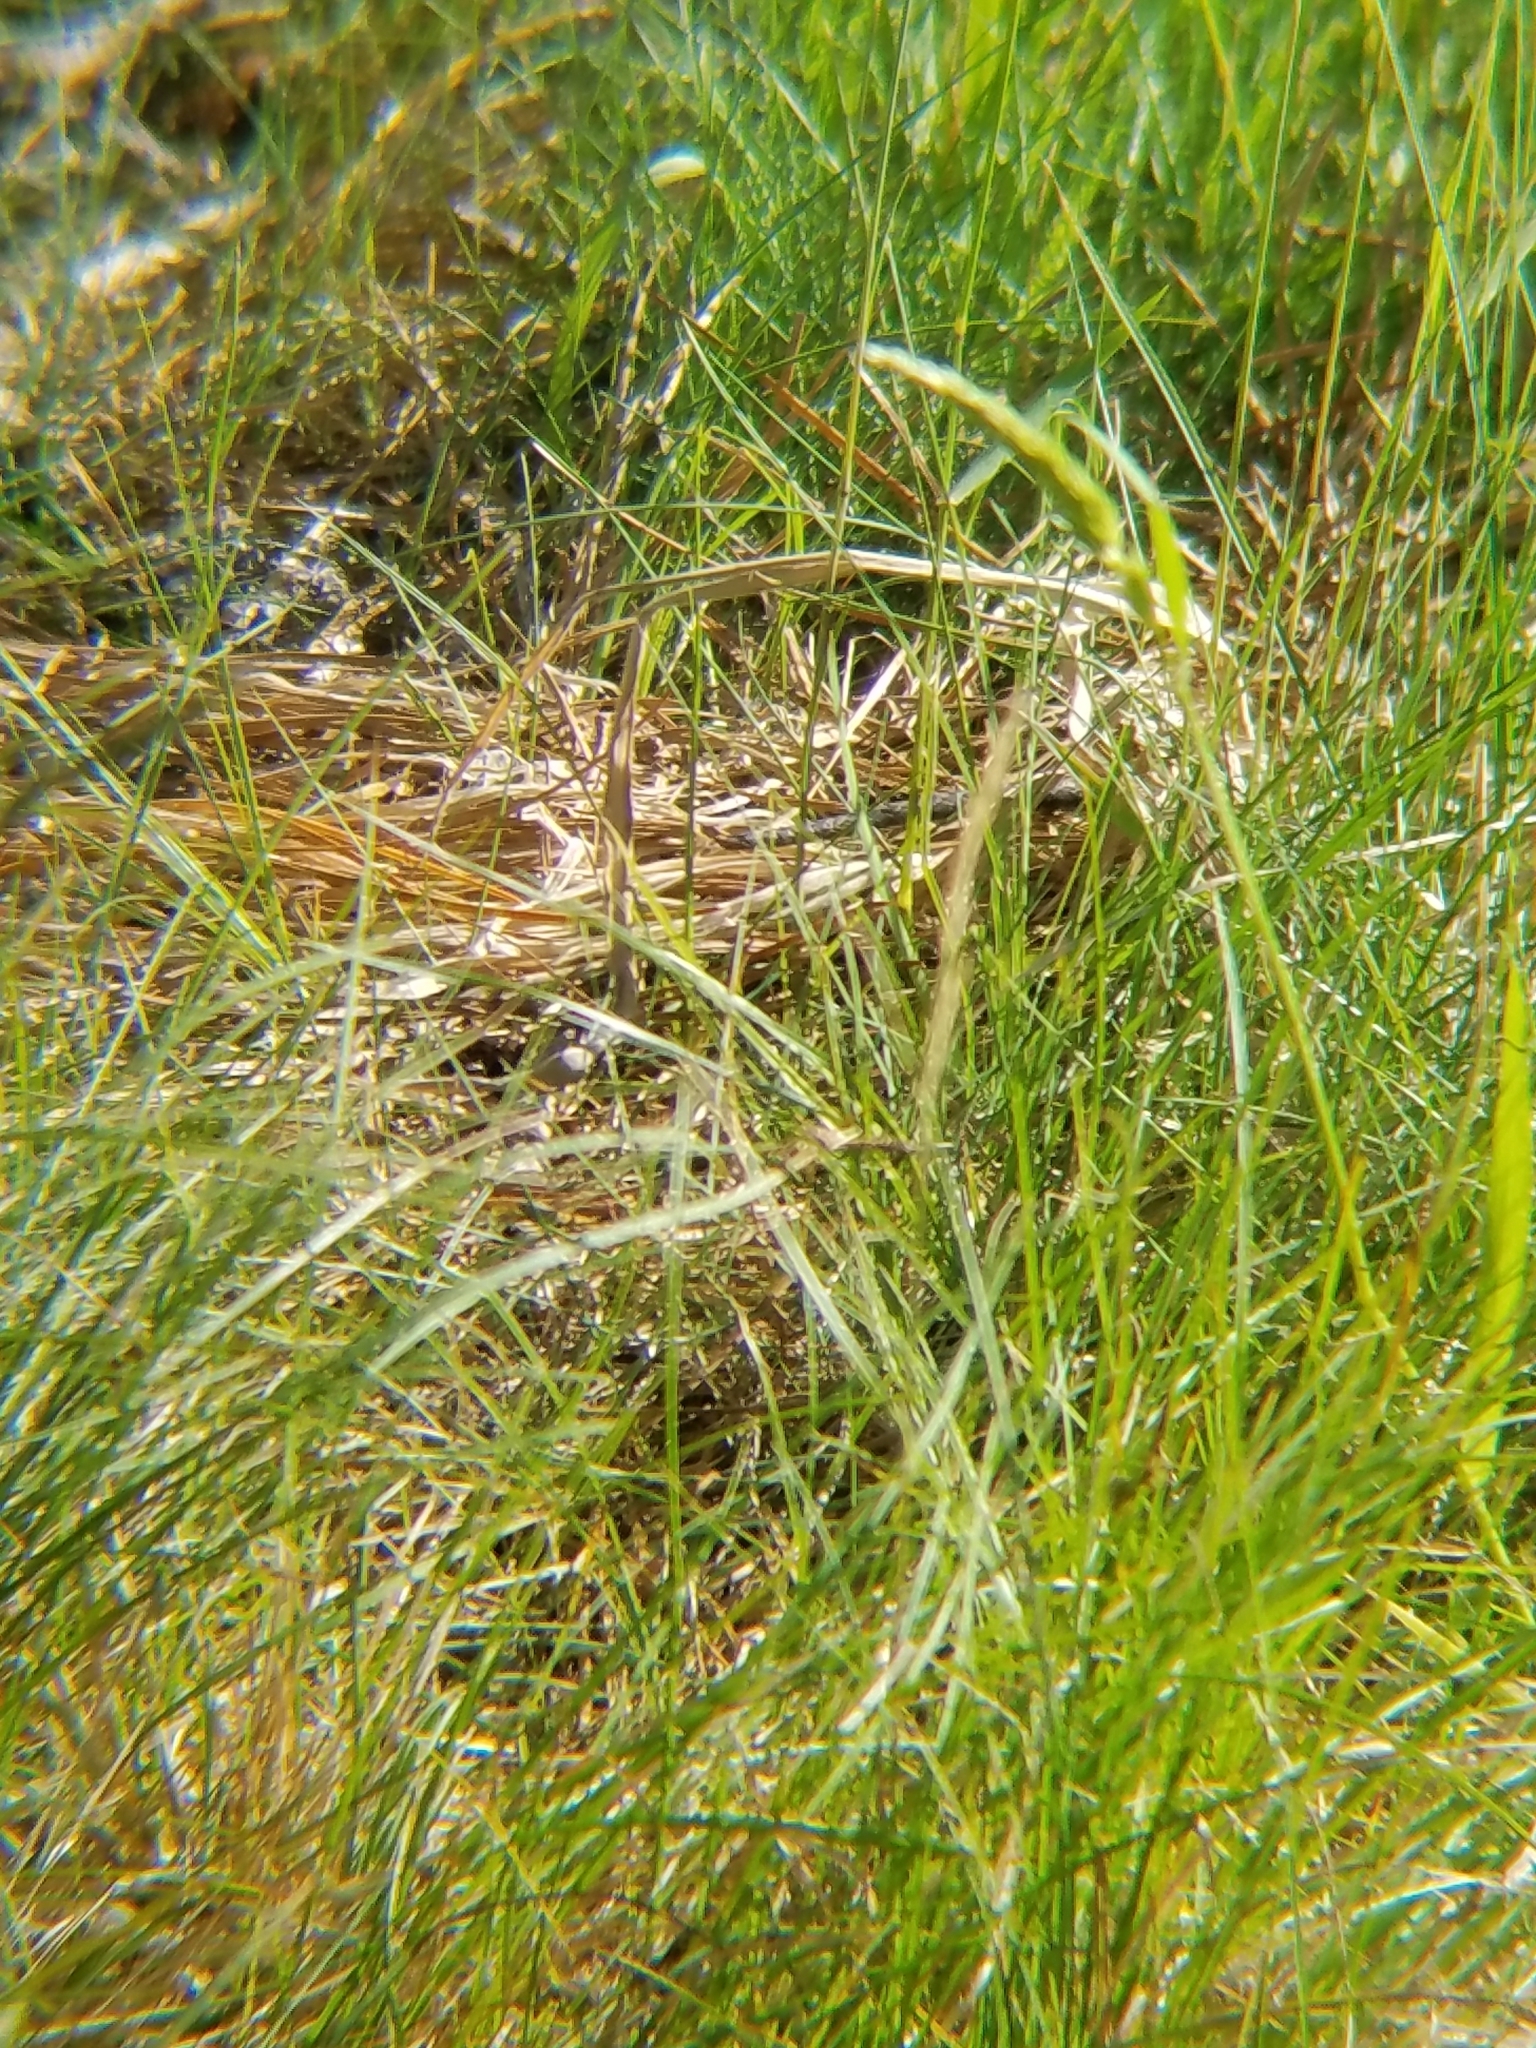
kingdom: Animalia
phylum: Chordata
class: Squamata
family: Colubridae
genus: Coluber
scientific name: Coluber constrictor
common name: Eastern racer
